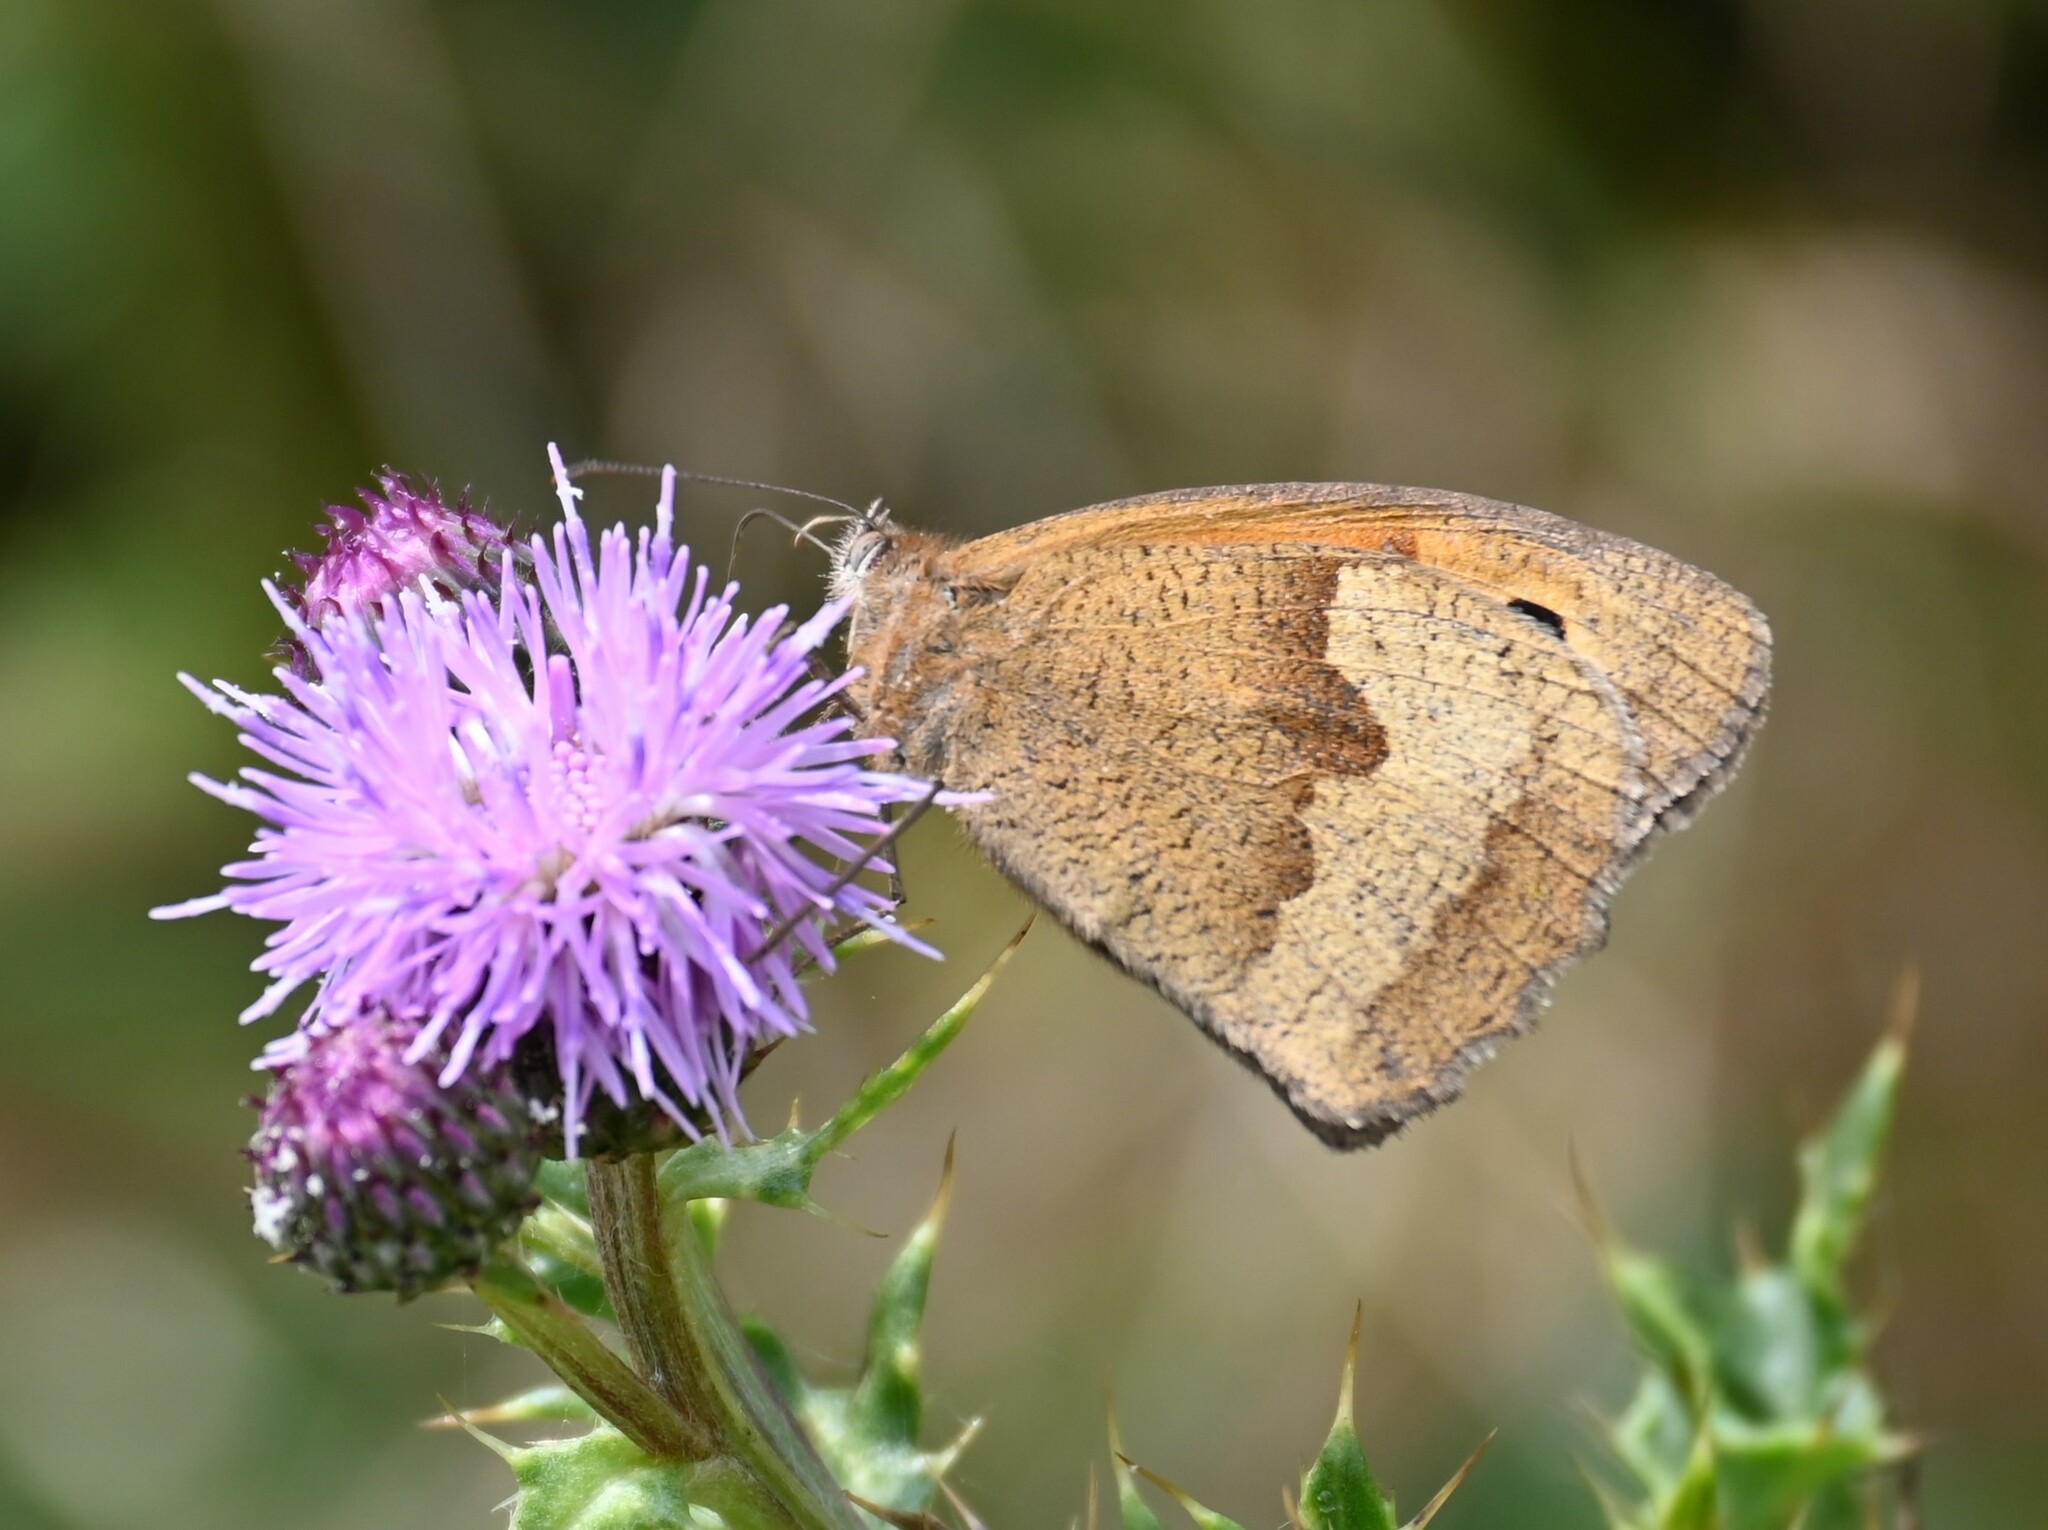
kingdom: Animalia
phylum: Arthropoda
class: Insecta
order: Lepidoptera
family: Nymphalidae
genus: Maniola
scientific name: Maniola jurtina
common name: Meadow brown
